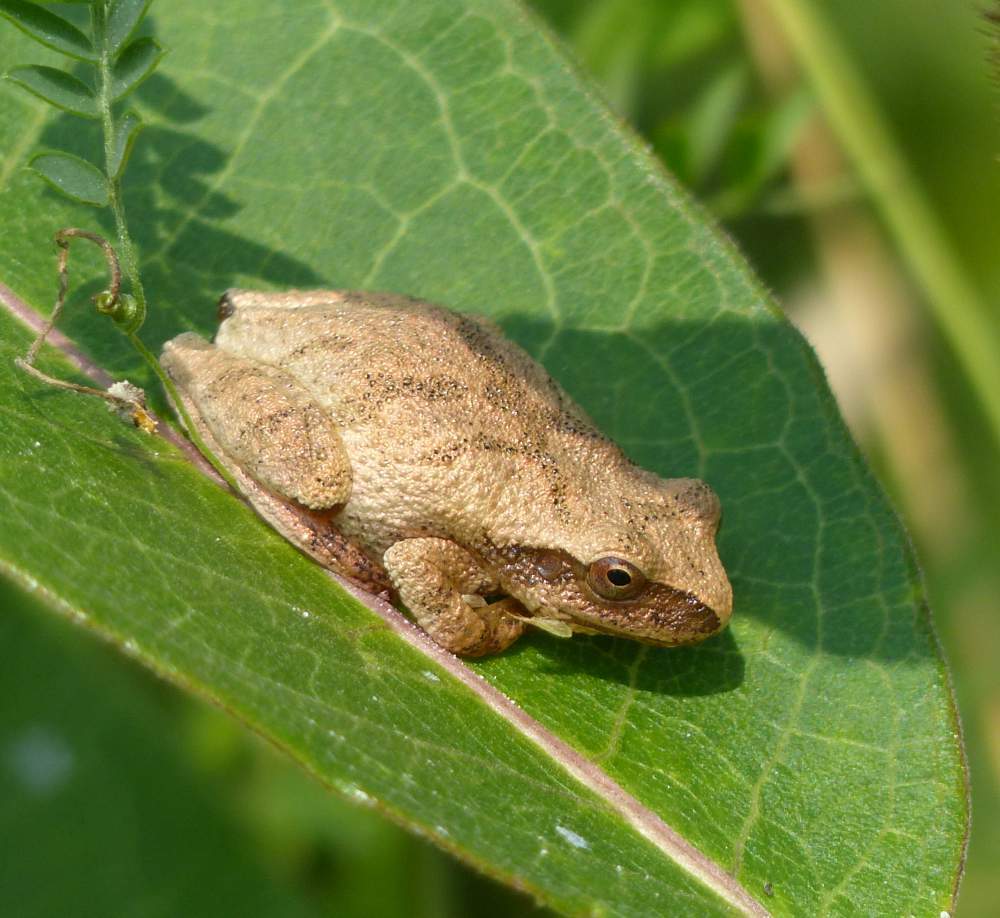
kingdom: Animalia
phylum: Chordata
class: Amphibia
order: Anura
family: Hylidae
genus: Pseudacris
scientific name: Pseudacris crucifer
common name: Spring peeper
